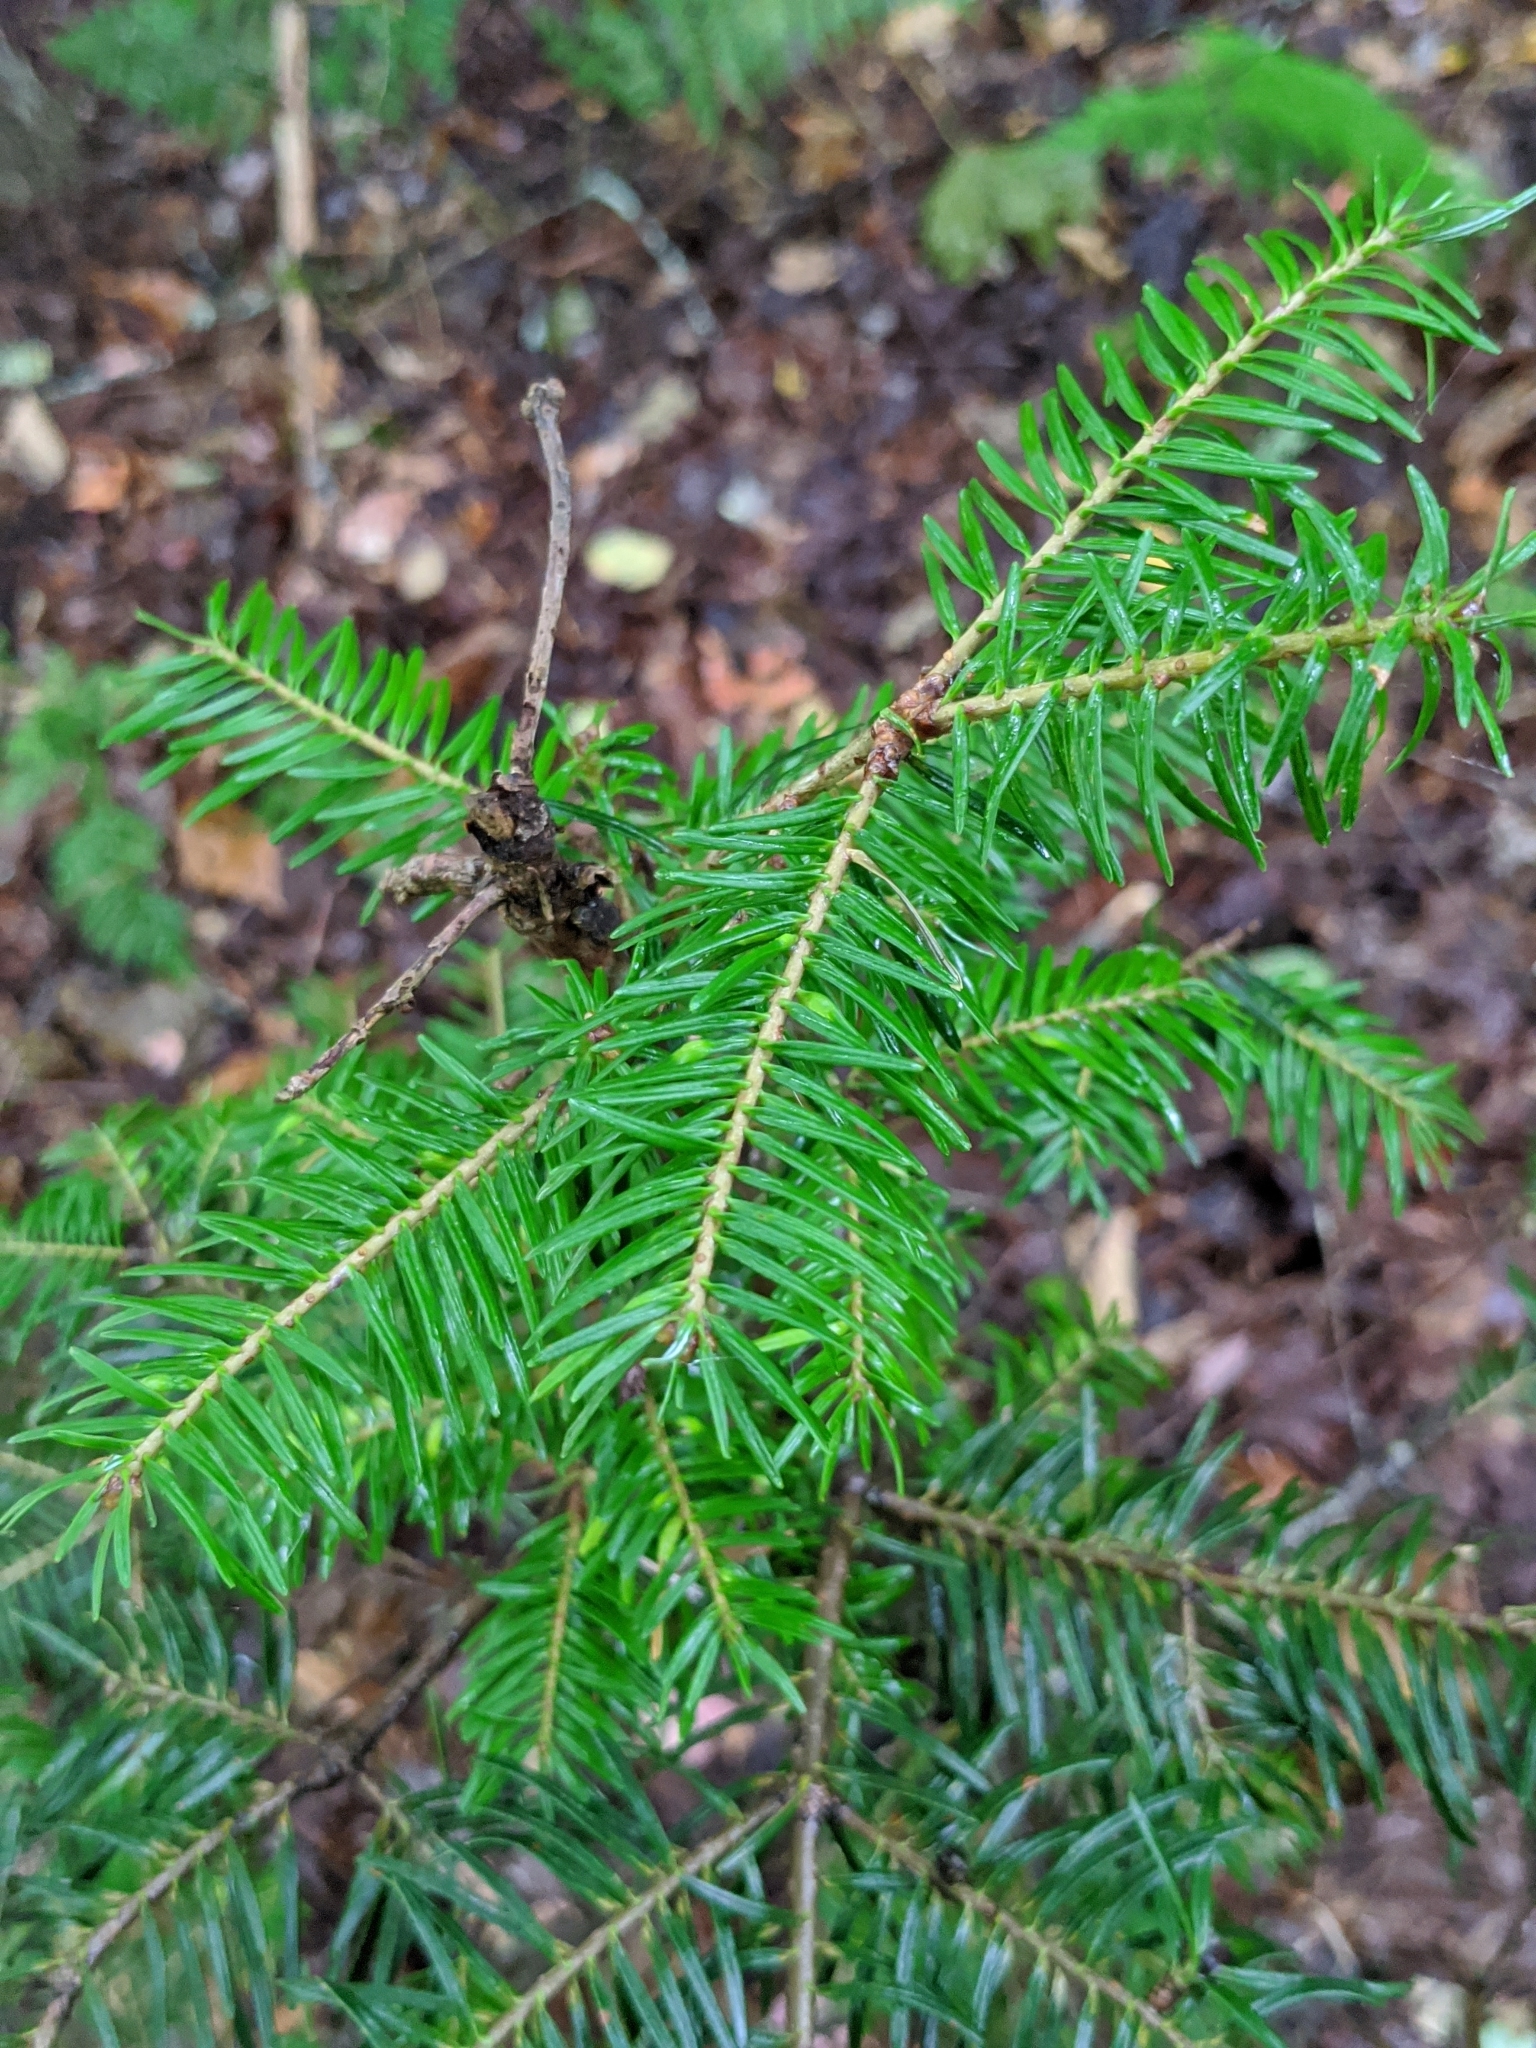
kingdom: Plantae
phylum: Tracheophyta
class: Pinopsida
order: Pinales
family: Pinaceae
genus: Abies
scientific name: Abies balsamea
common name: Balsam fir
